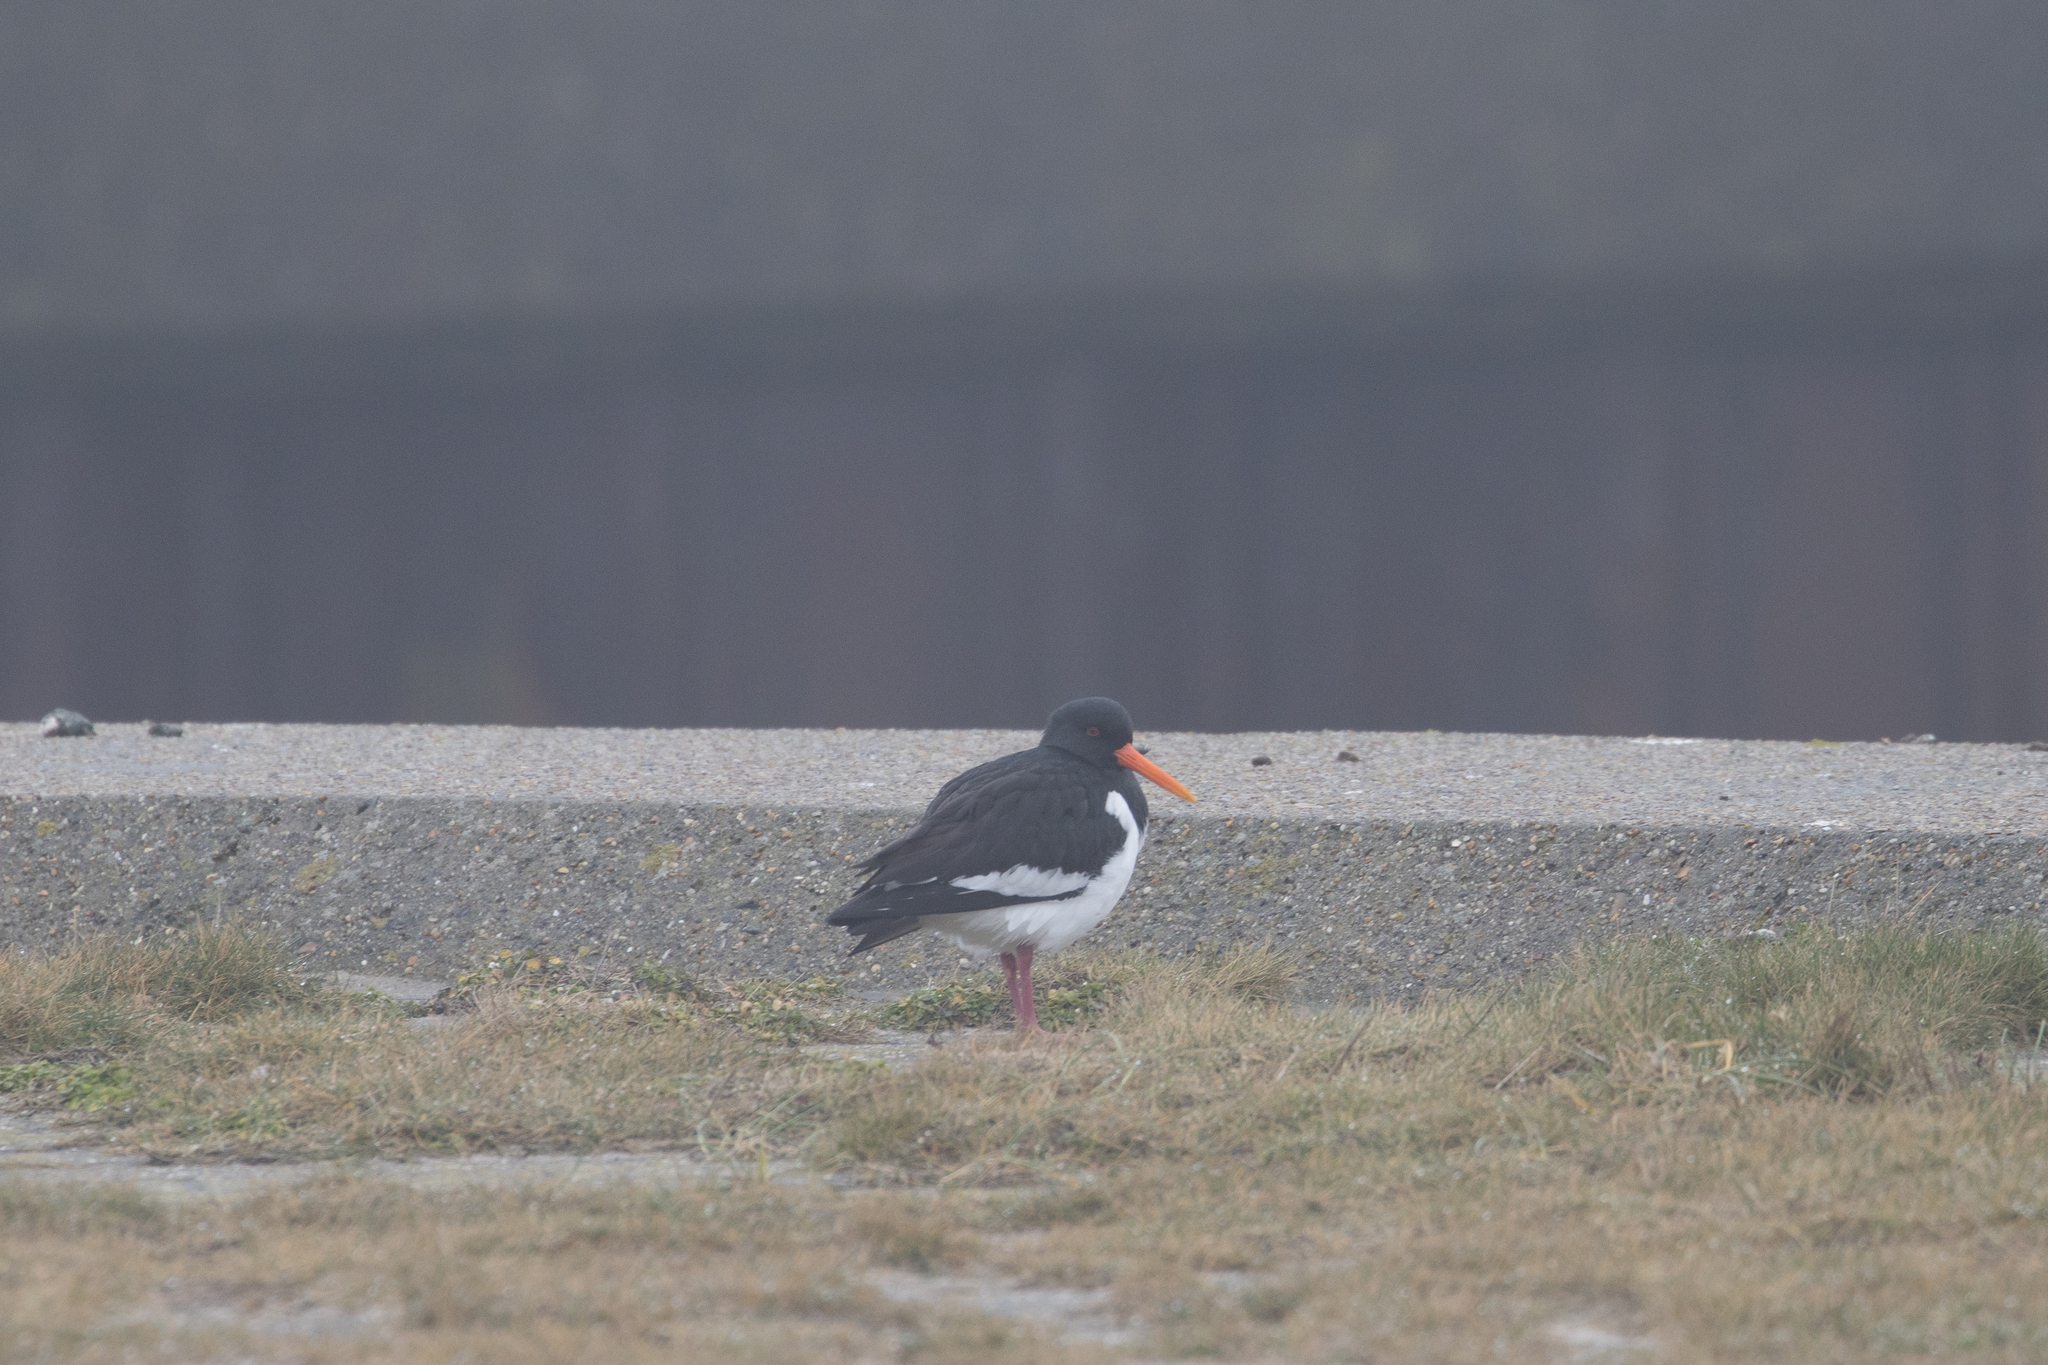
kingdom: Animalia
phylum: Chordata
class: Aves
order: Charadriiformes
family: Haematopodidae
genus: Haematopus
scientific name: Haematopus ostralegus
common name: Eurasian oystercatcher
